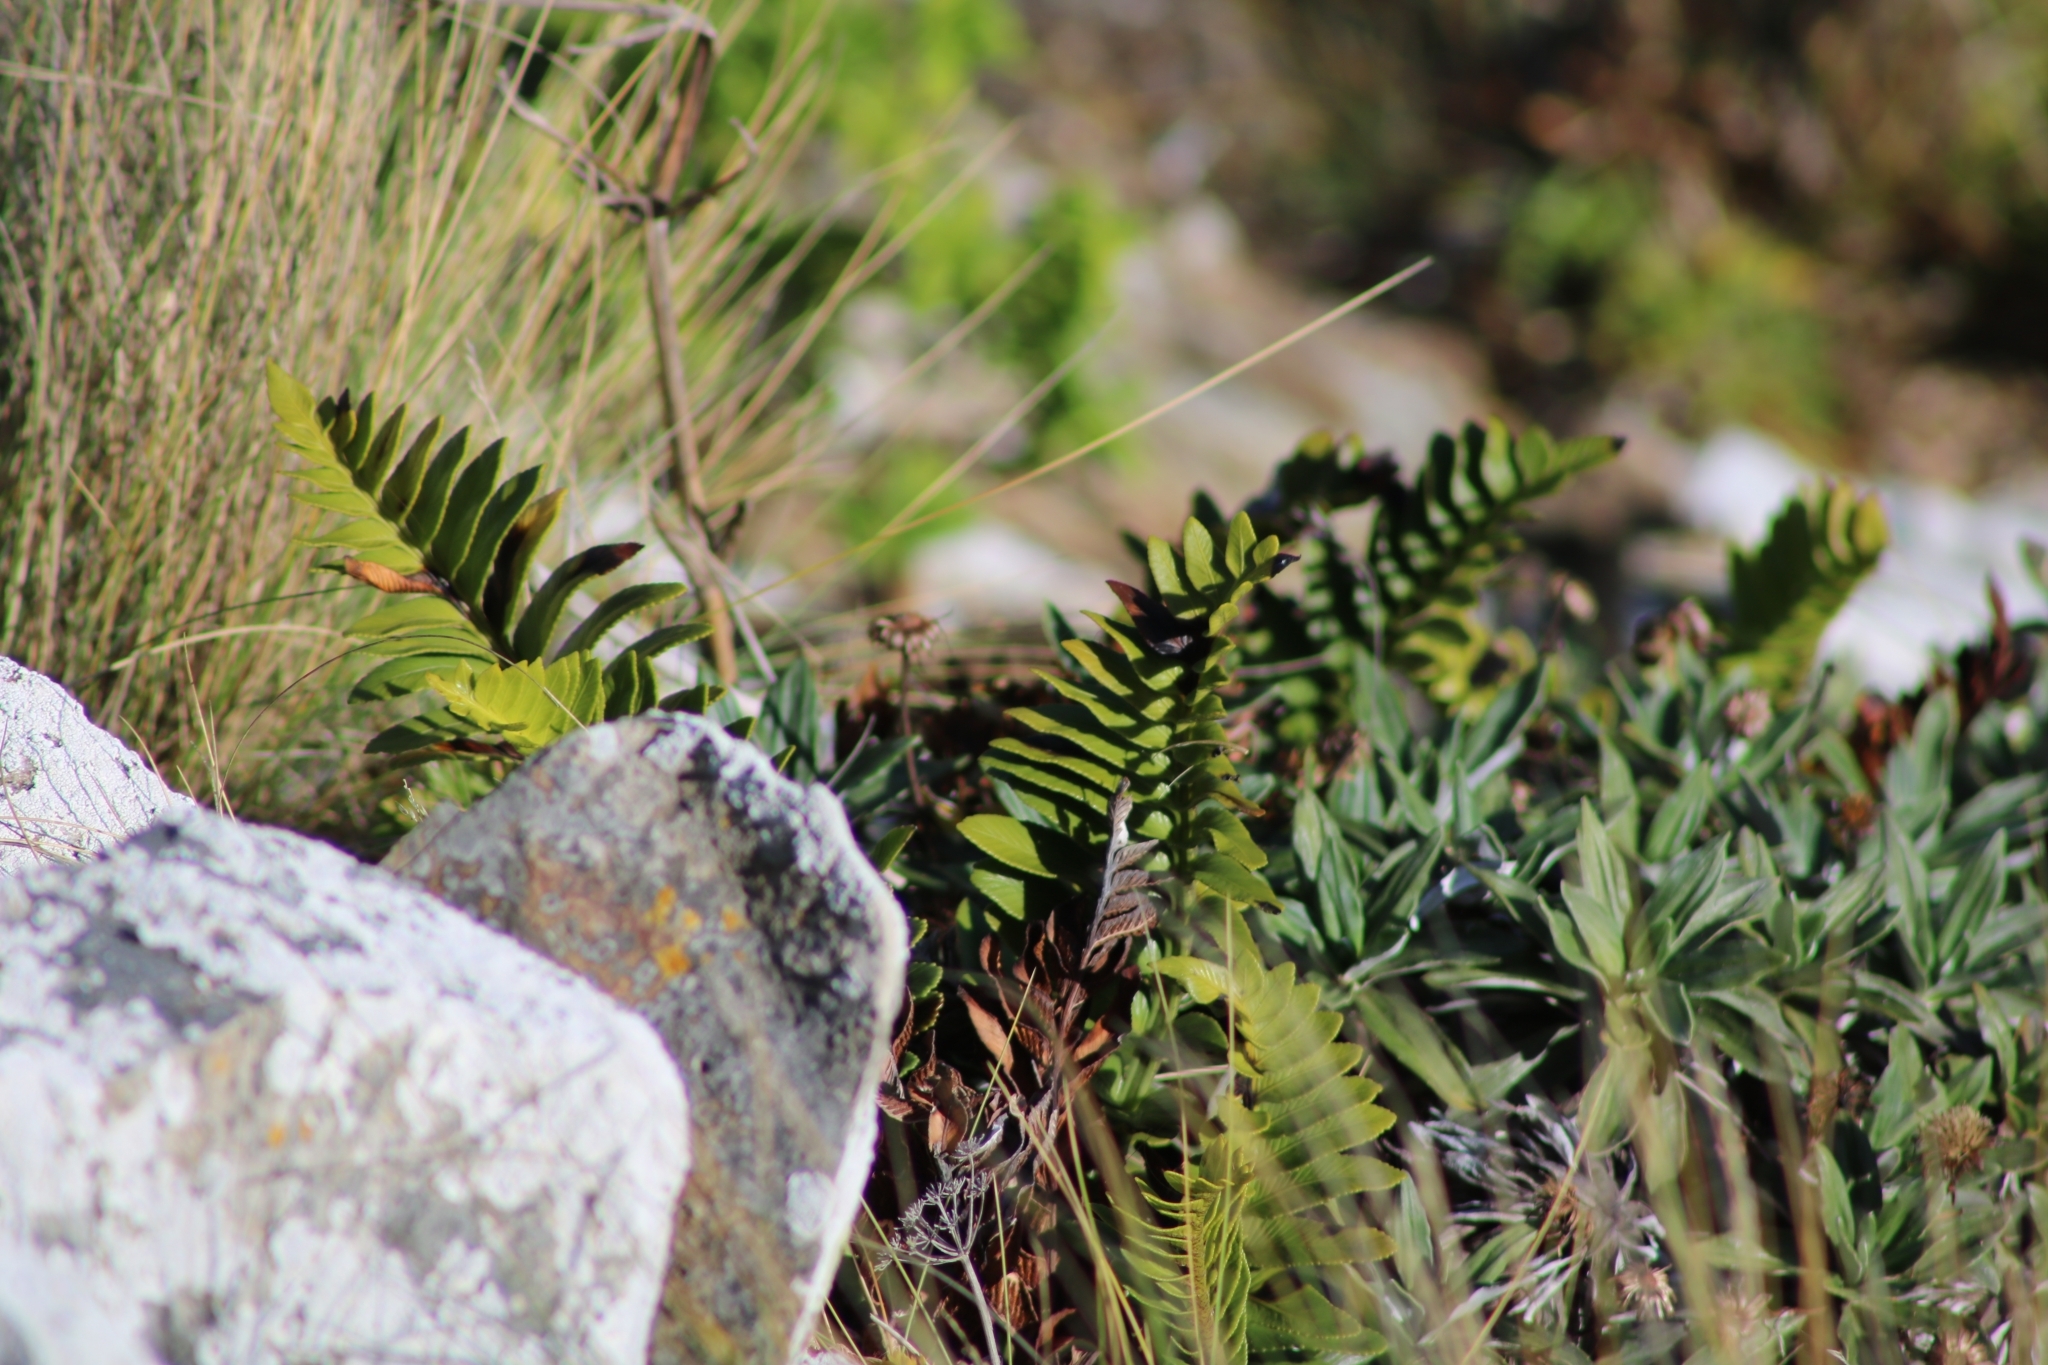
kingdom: Plantae
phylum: Tracheophyta
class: Polypodiopsida
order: Polypodiales
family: Aspleniaceae
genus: Asplenium
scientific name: Asplenium obtusatum
